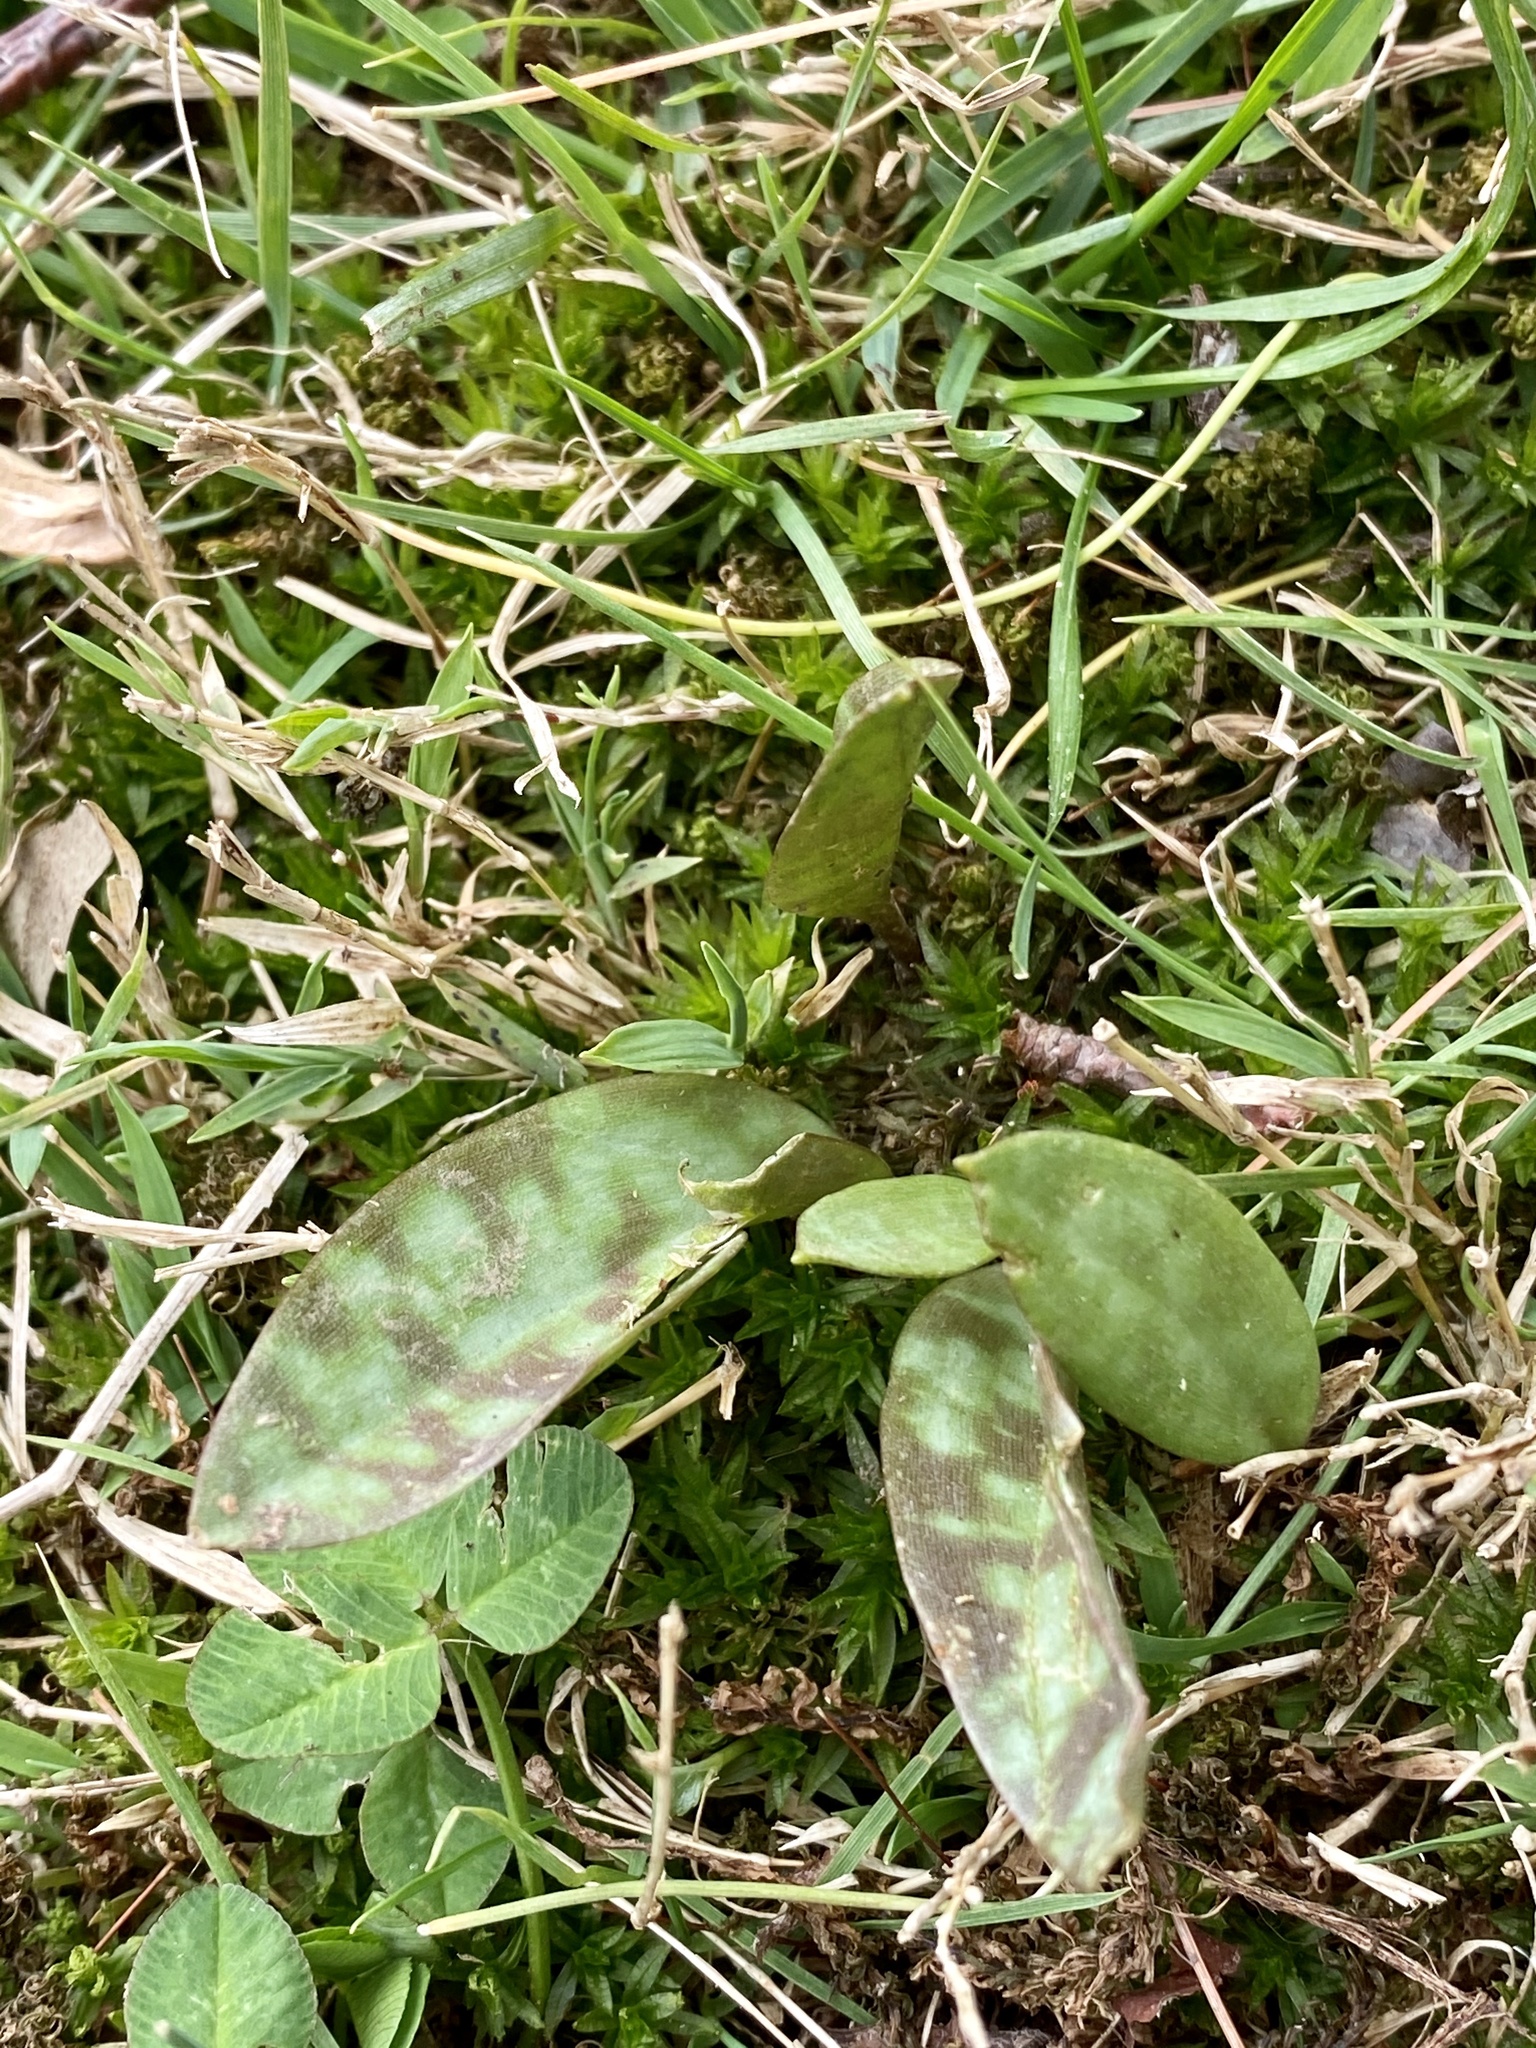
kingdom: Plantae
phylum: Tracheophyta
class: Liliopsida
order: Liliales
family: Liliaceae
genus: Erythronium
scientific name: Erythronium americanum
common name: Yellow adder's-tongue
